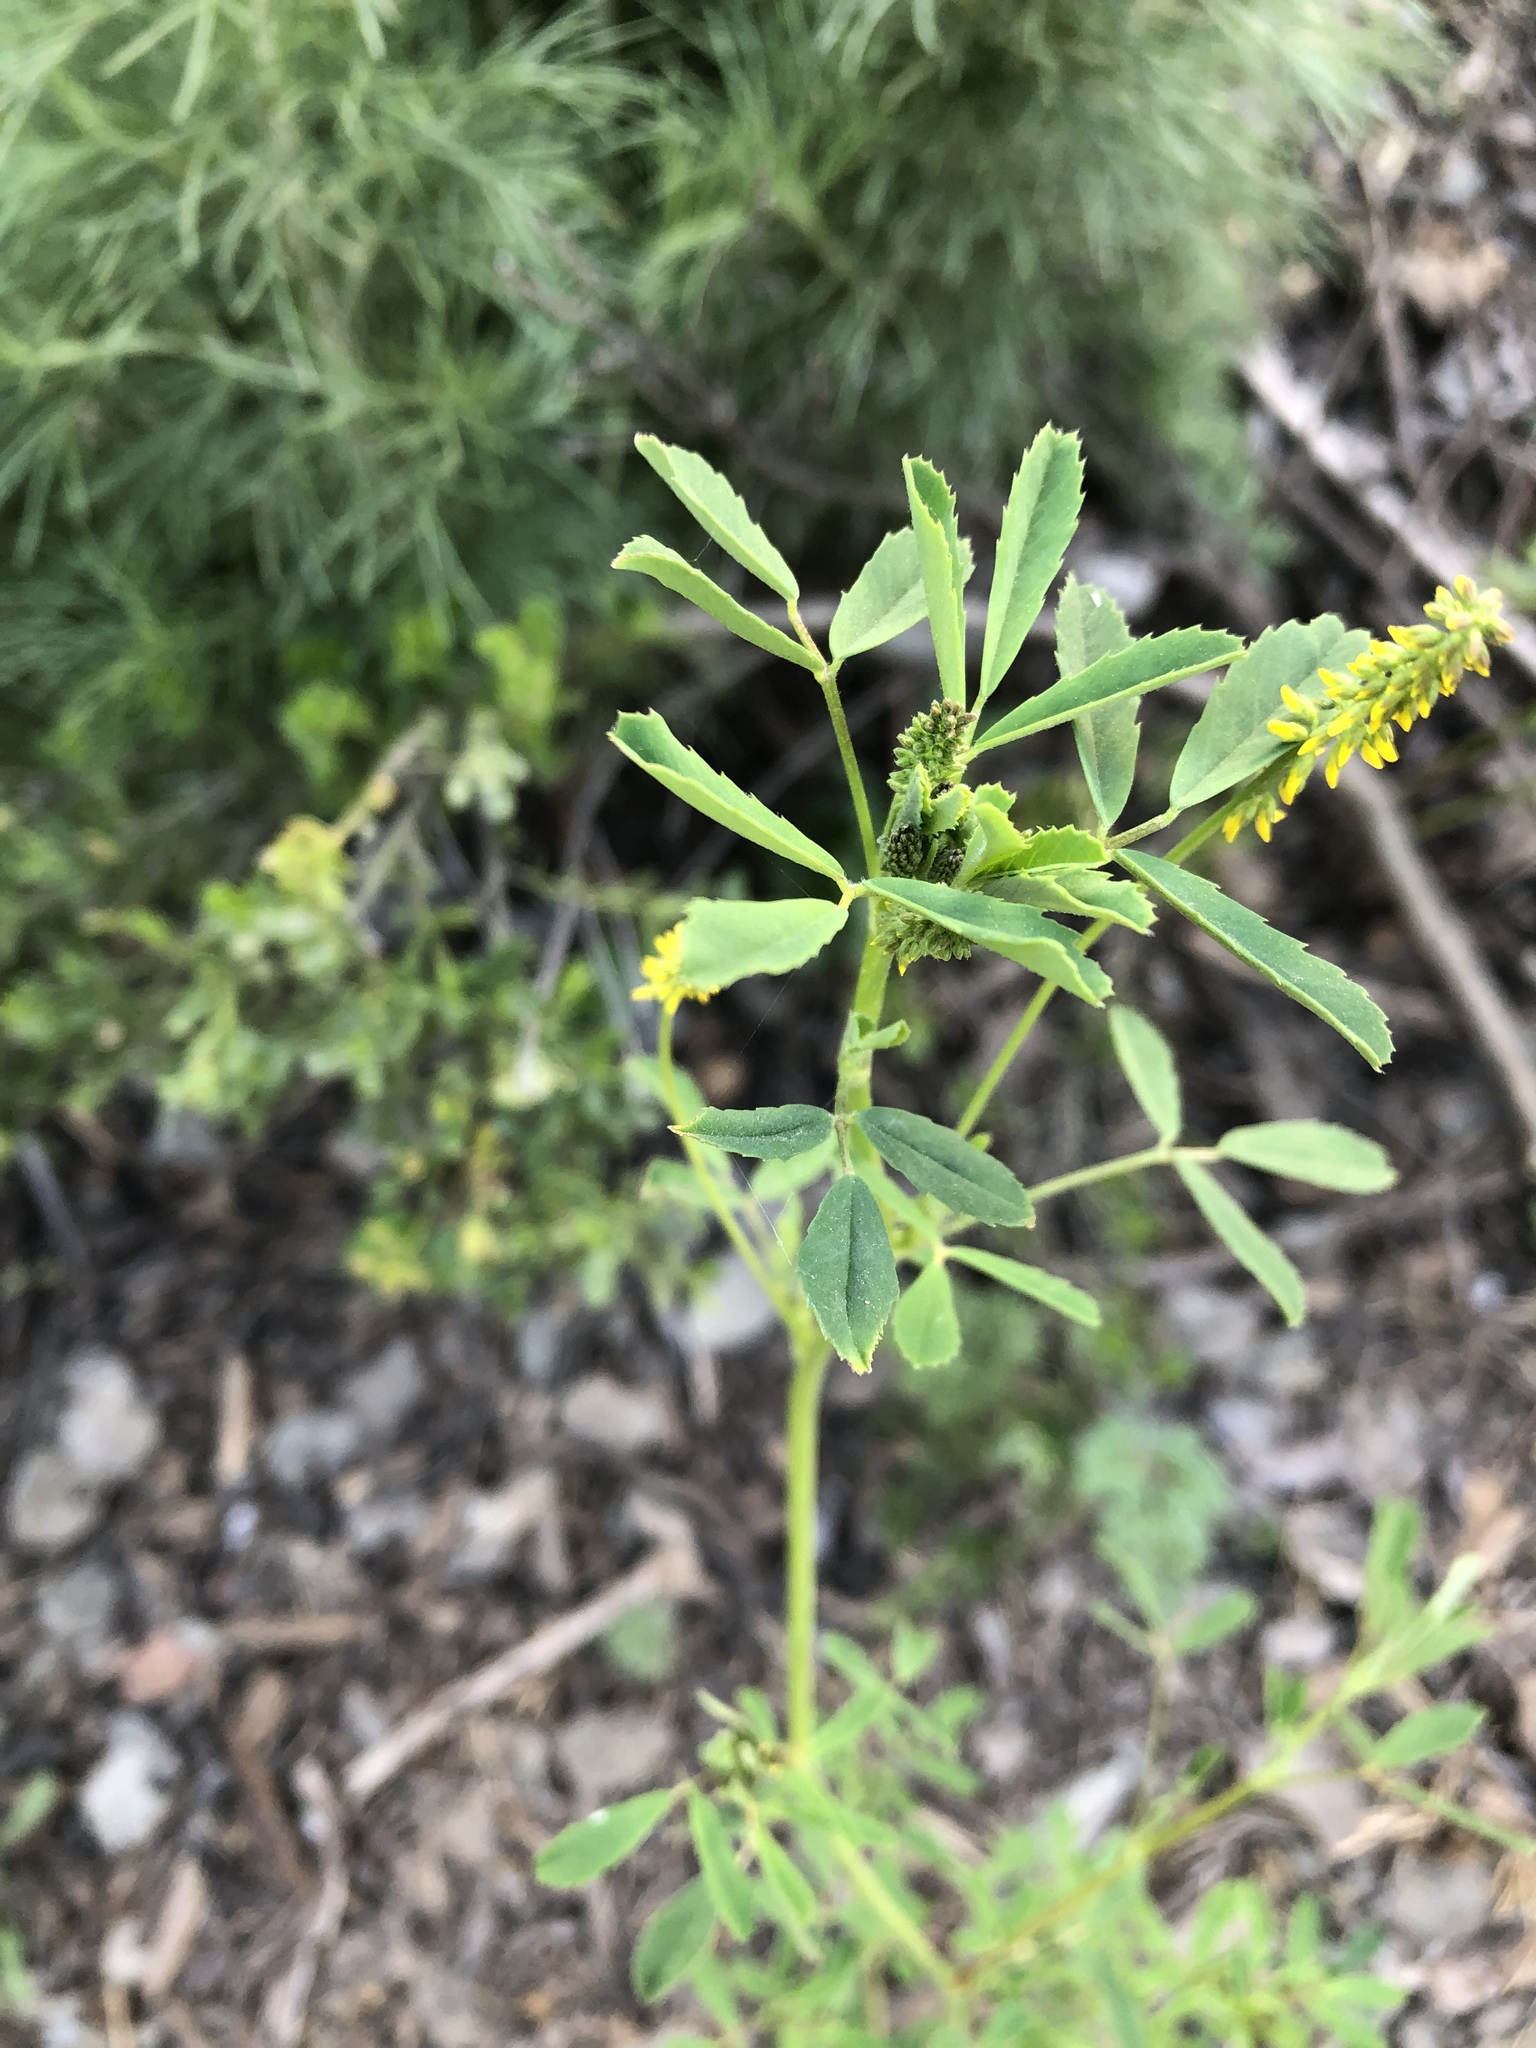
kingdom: Plantae
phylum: Tracheophyta
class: Magnoliopsida
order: Fabales
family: Fabaceae
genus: Melilotus
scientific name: Melilotus indicus
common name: Small melilot
